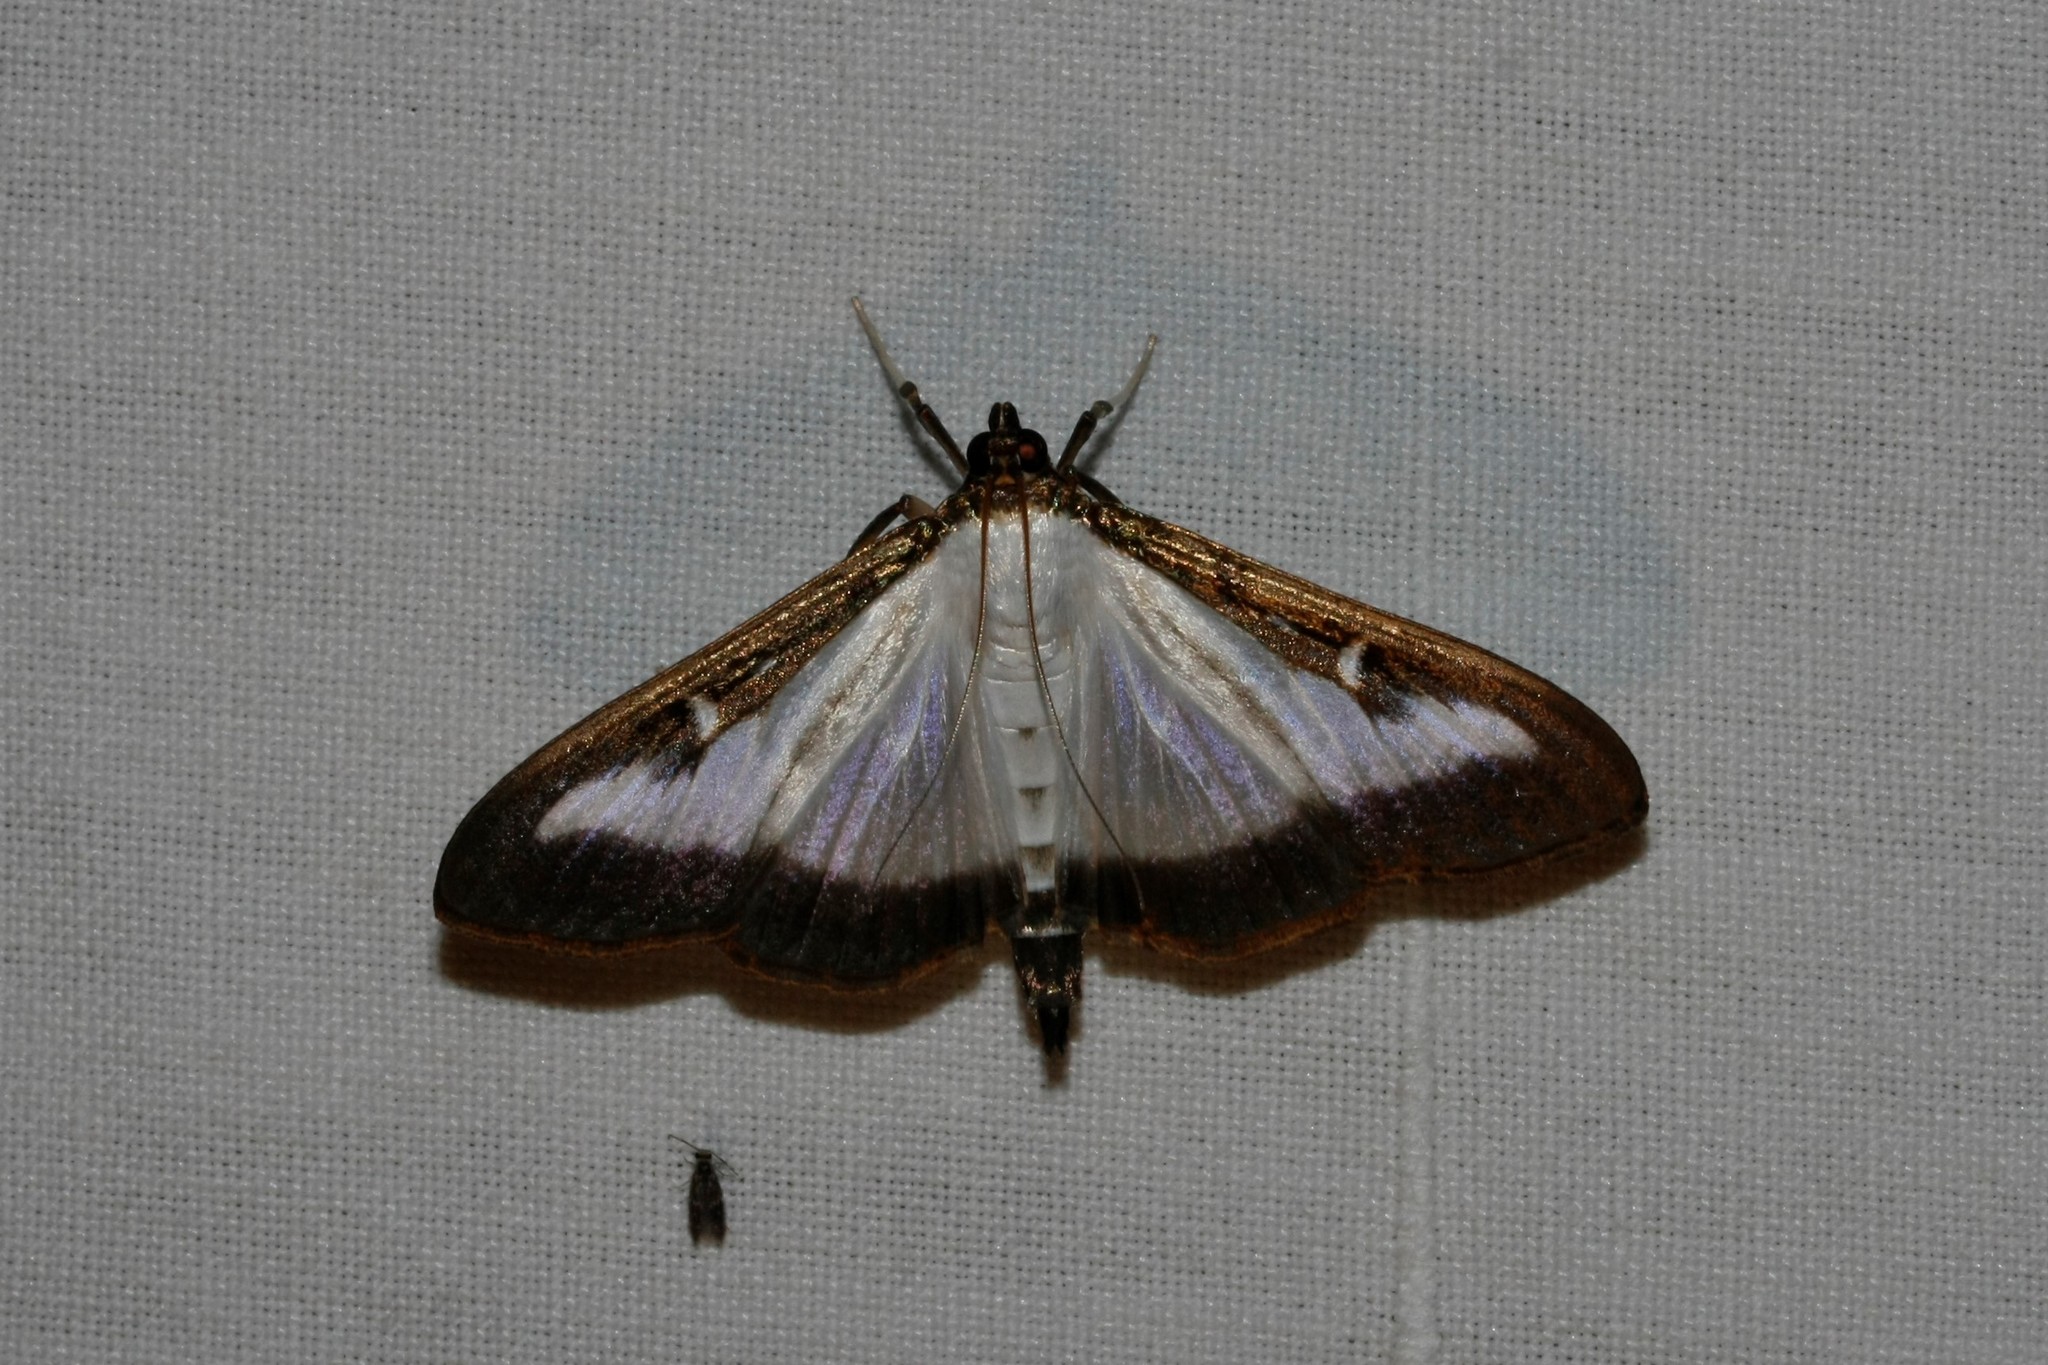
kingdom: Animalia
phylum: Arthropoda
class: Insecta
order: Lepidoptera
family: Crambidae
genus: Cydalima
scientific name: Cydalima perspectalis
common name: Box tree moth
